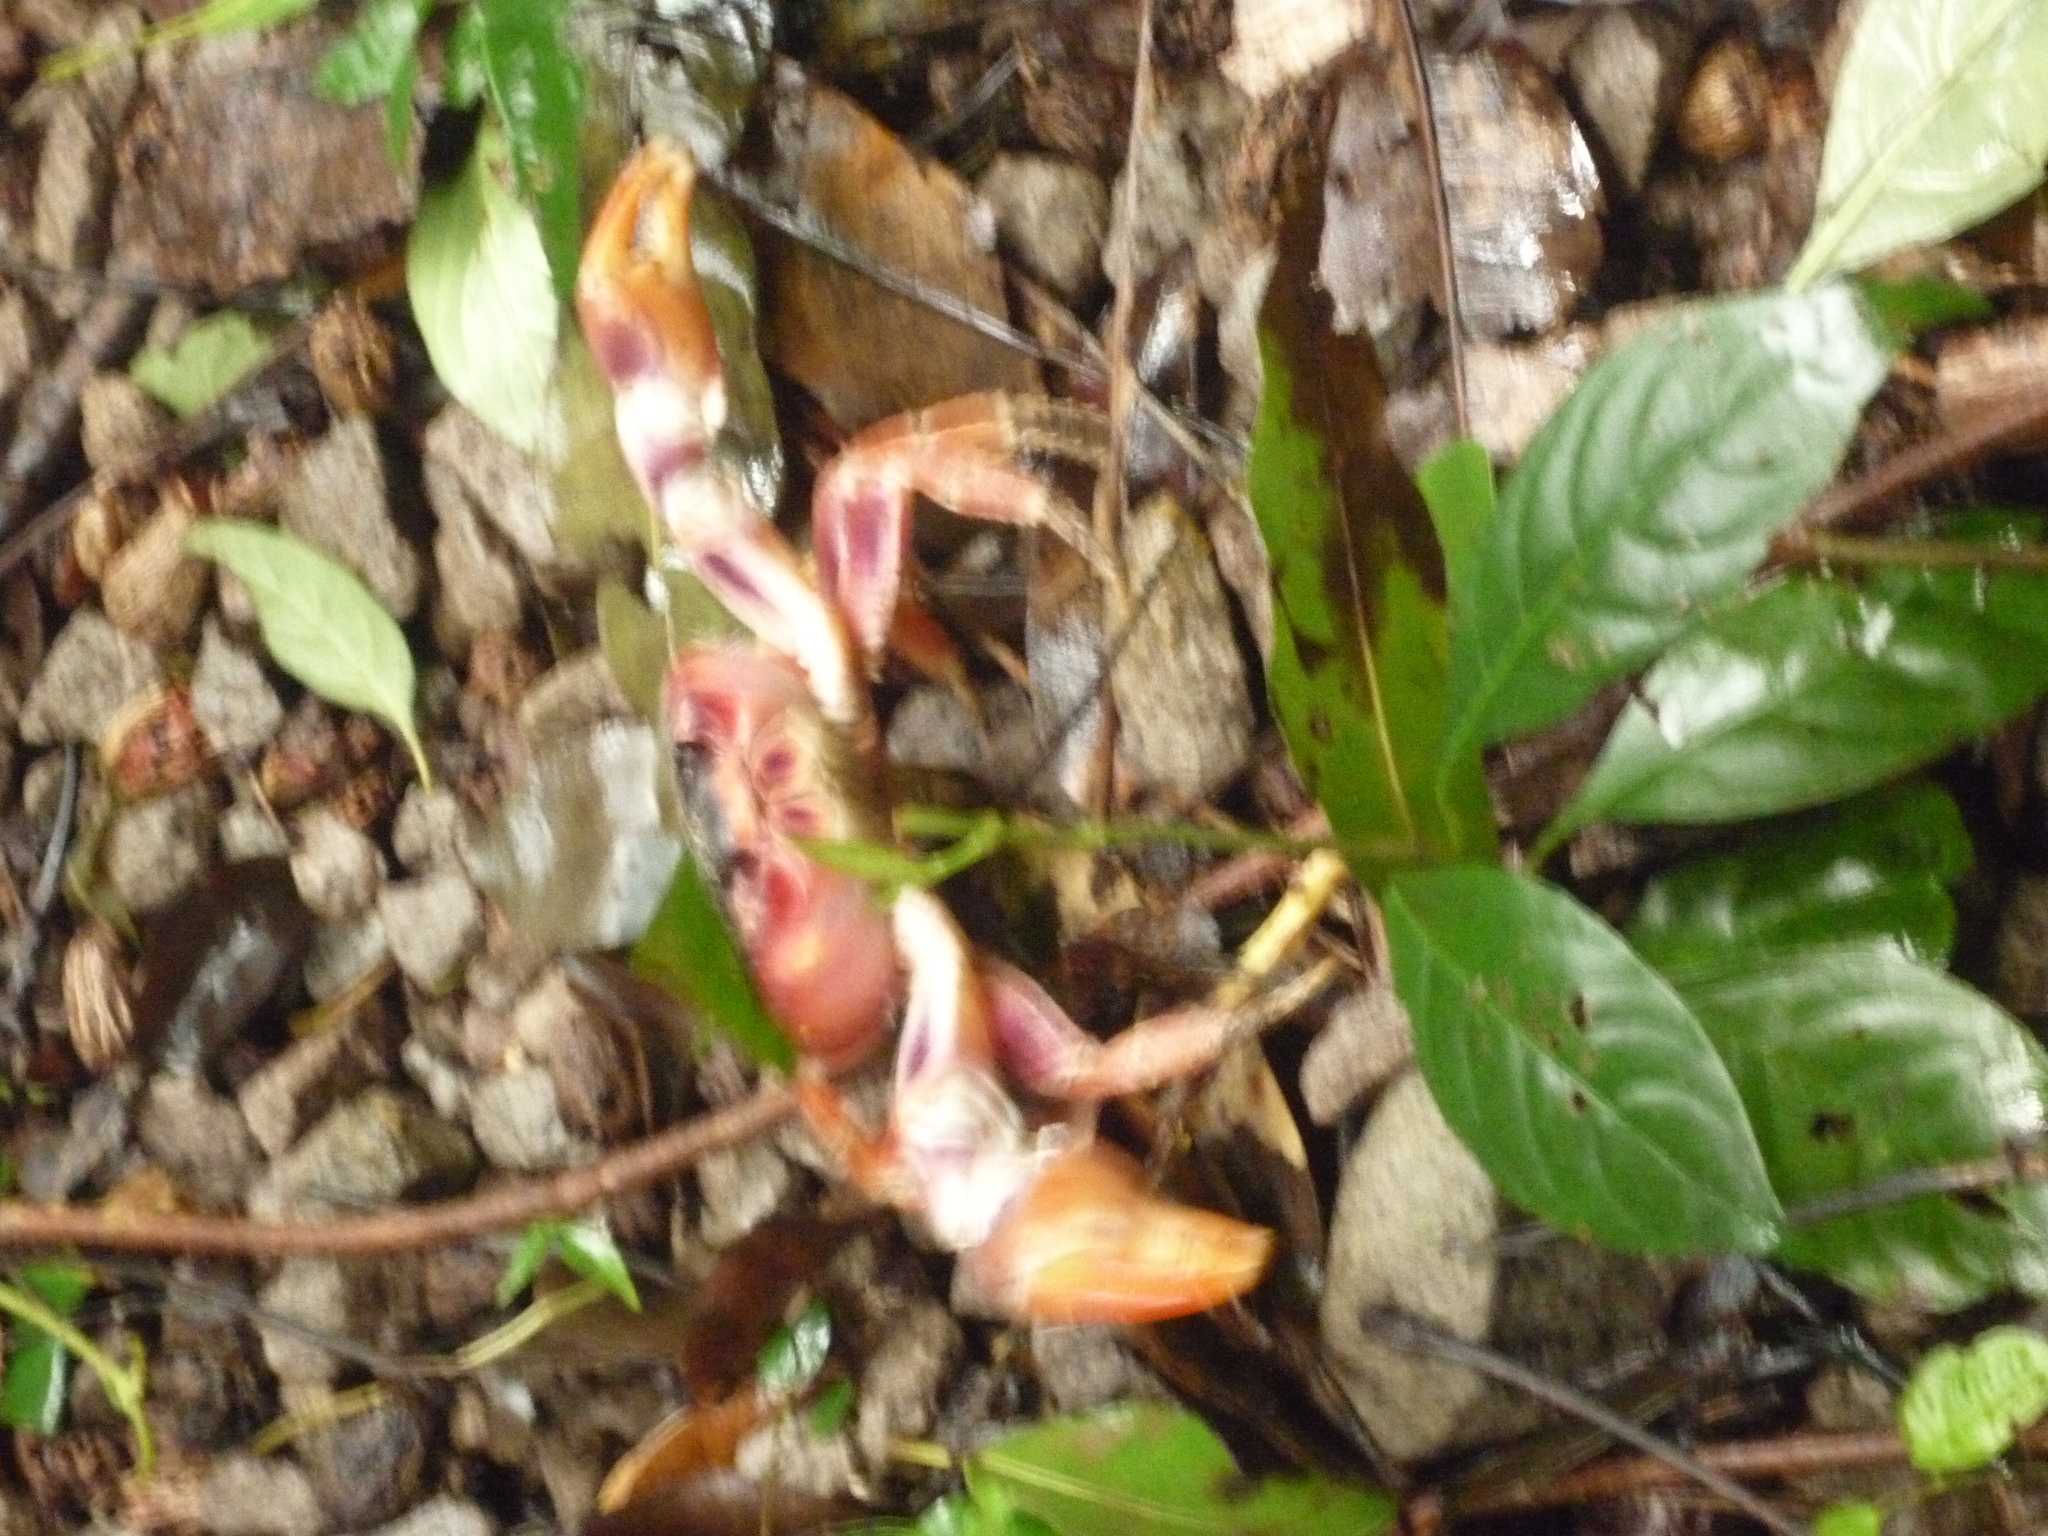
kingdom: Animalia
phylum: Arthropoda
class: Malacostraca
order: Decapoda
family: Gecarcinidae
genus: Gecarcinus
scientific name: Gecarcinus lateralis
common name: Bermuda land crab
